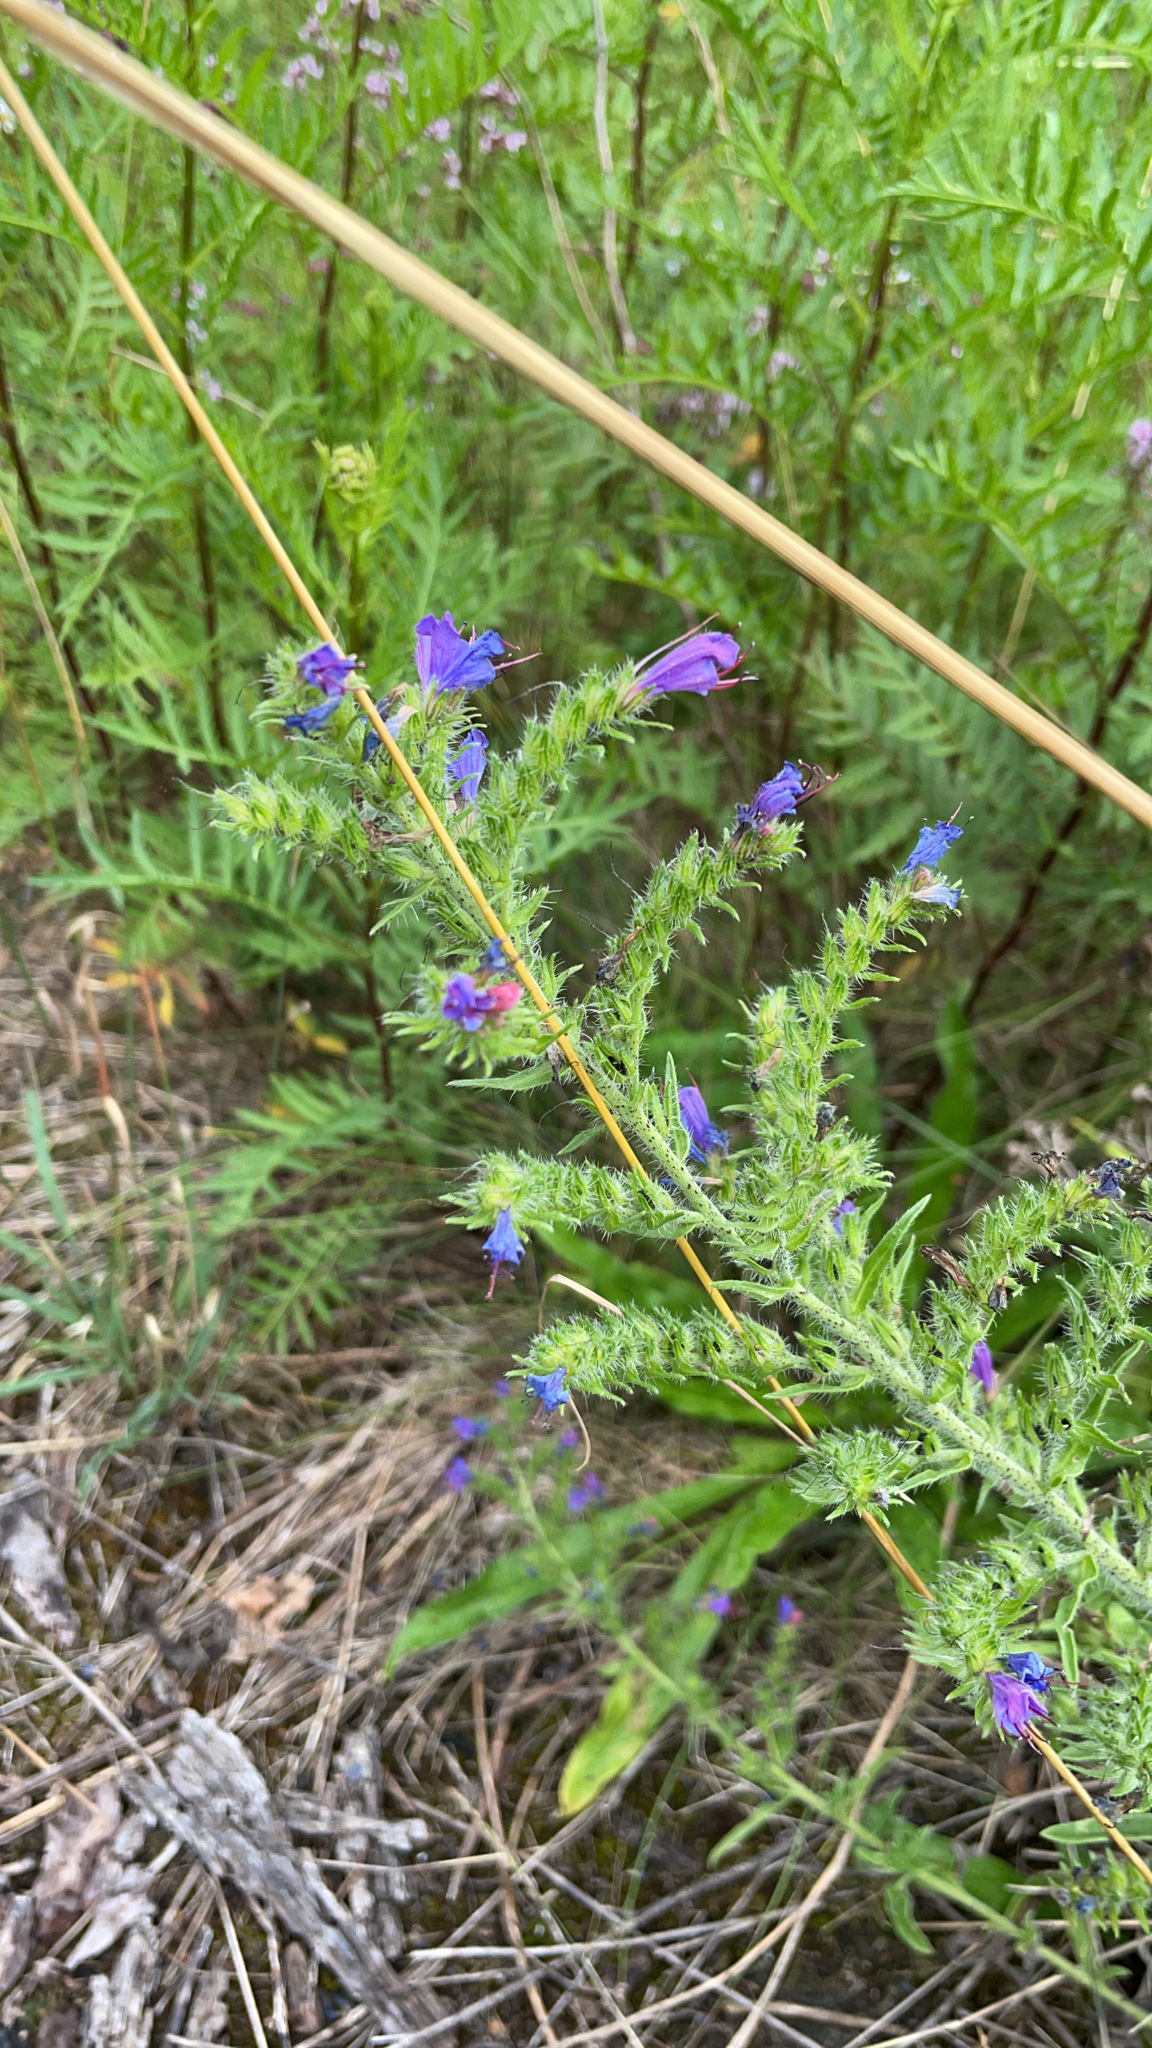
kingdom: Plantae
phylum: Tracheophyta
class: Magnoliopsida
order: Boraginales
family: Boraginaceae
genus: Echium
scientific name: Echium vulgare
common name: Common viper's bugloss
